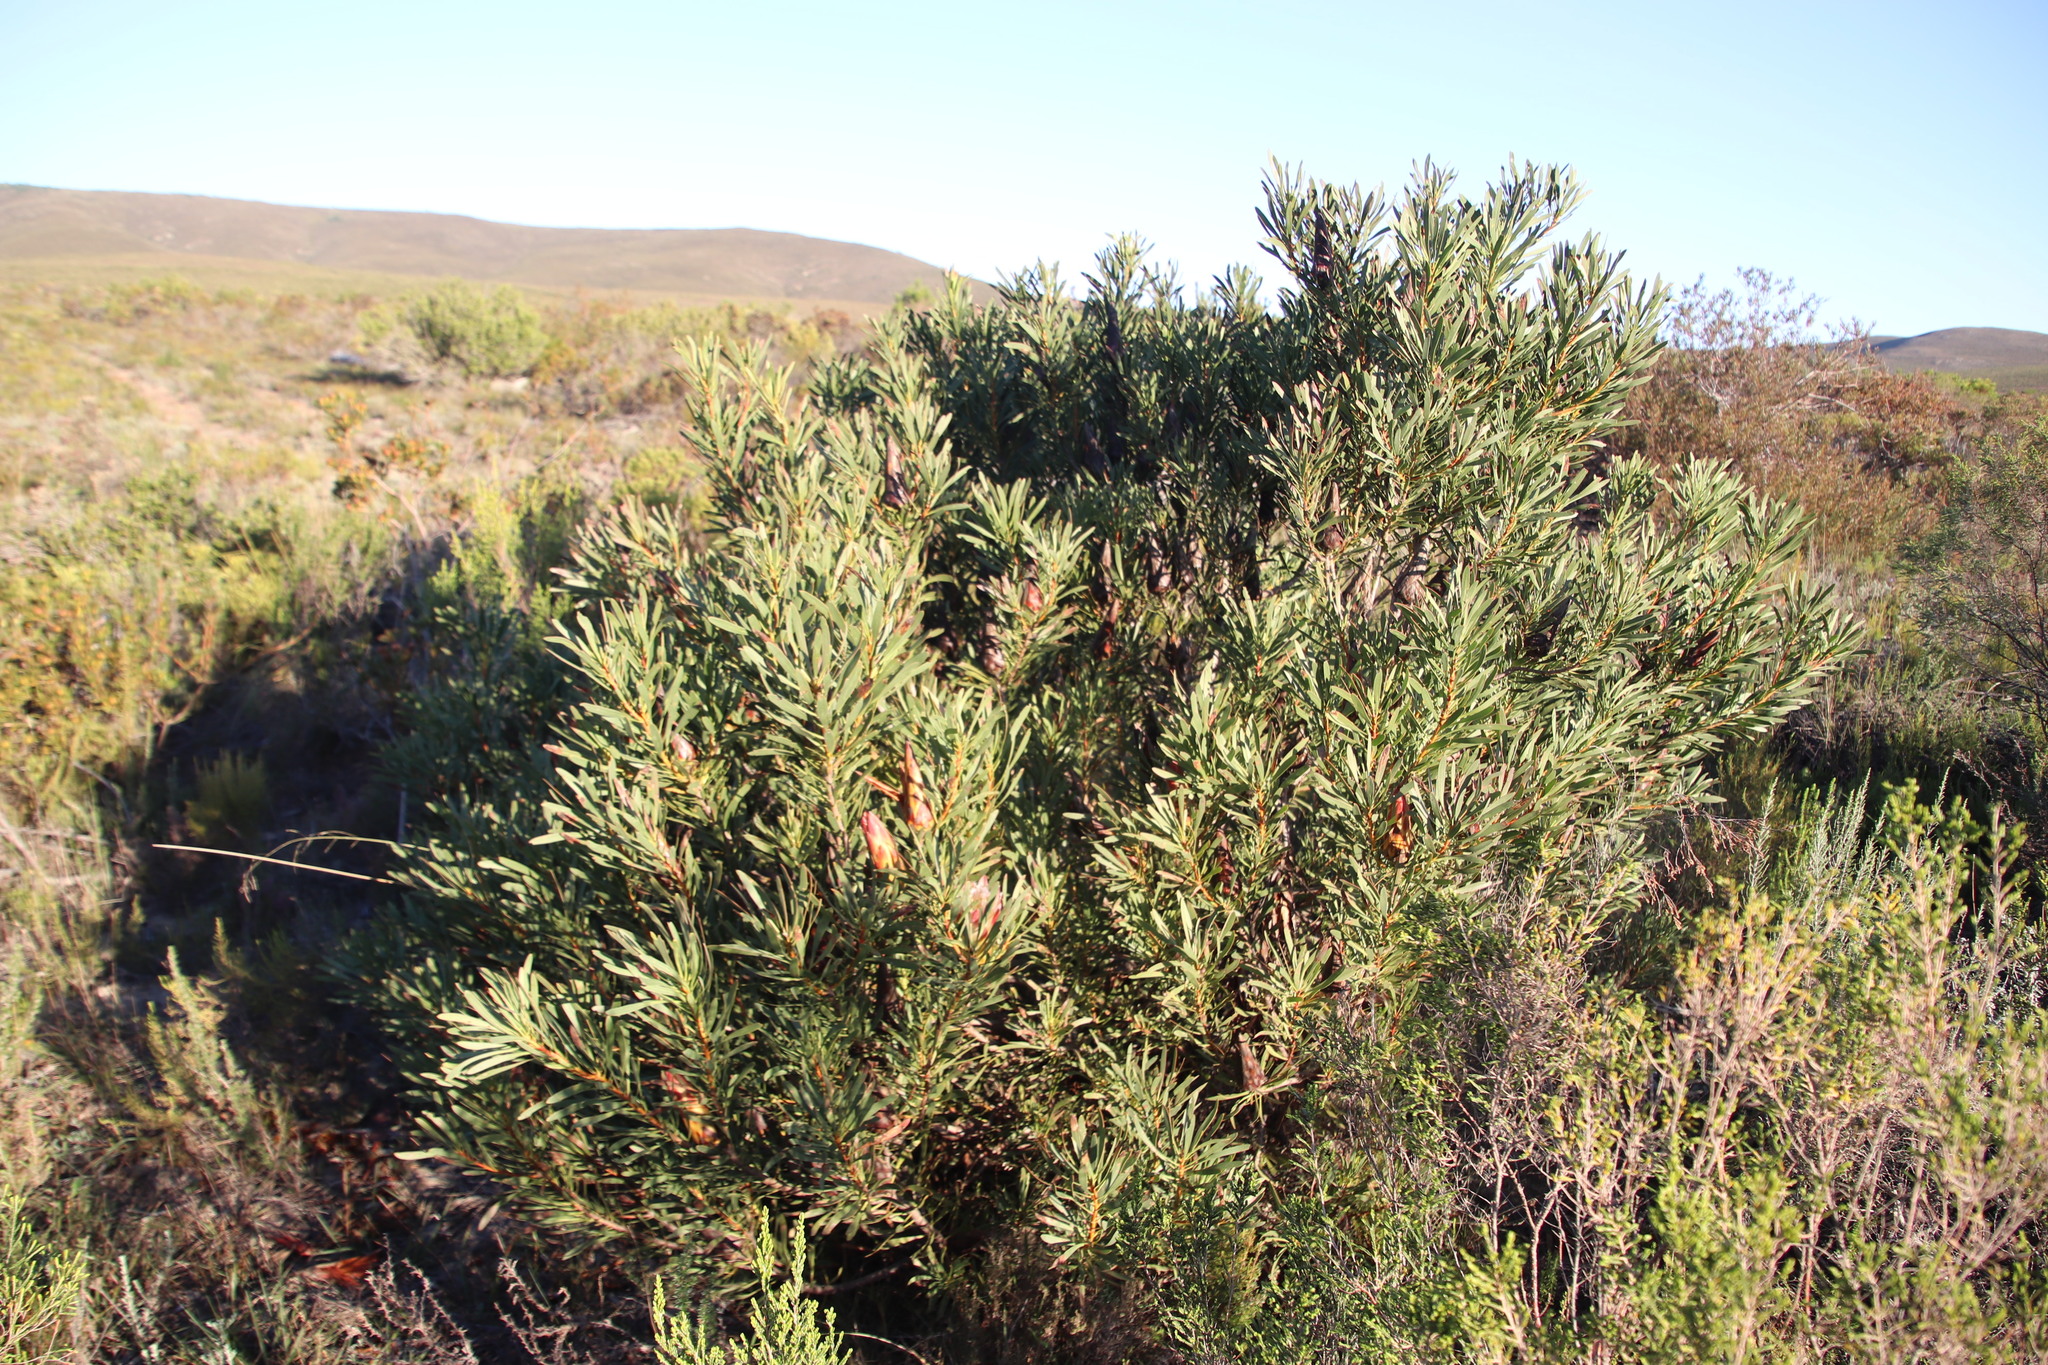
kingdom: Plantae
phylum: Tracheophyta
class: Magnoliopsida
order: Proteales
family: Proteaceae
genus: Protea
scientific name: Protea repens
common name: Sugarbush
